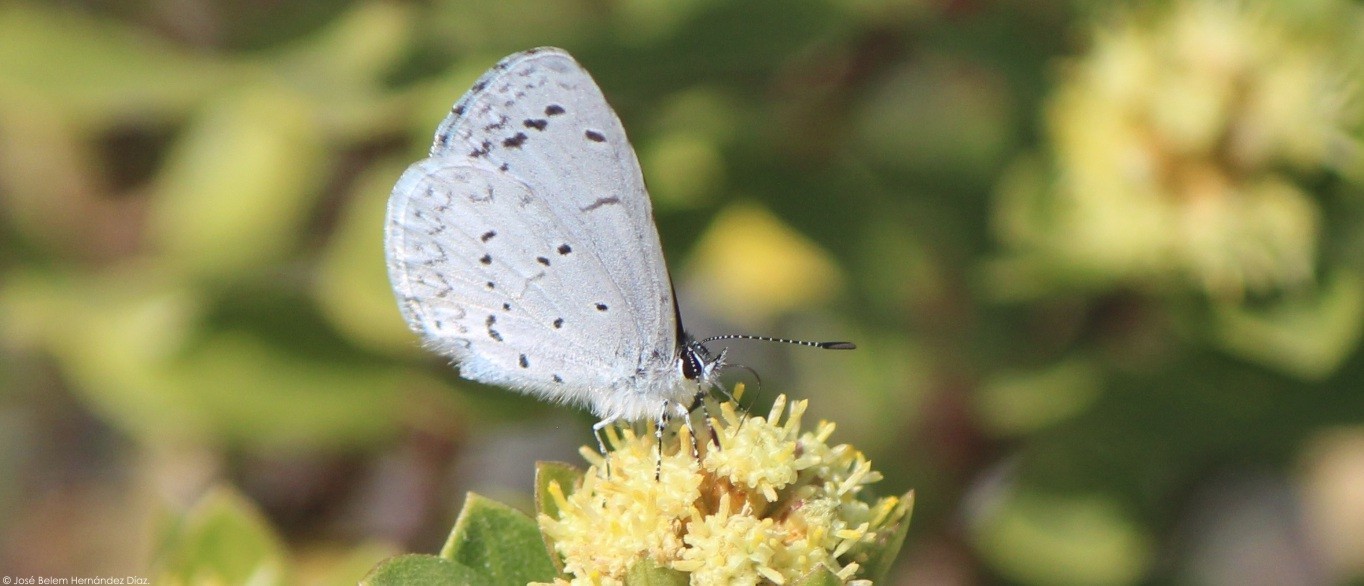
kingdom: Animalia
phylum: Arthropoda
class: Insecta
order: Lepidoptera
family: Lycaenidae
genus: Celastrina
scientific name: Celastrina ladon
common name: Spring azure
